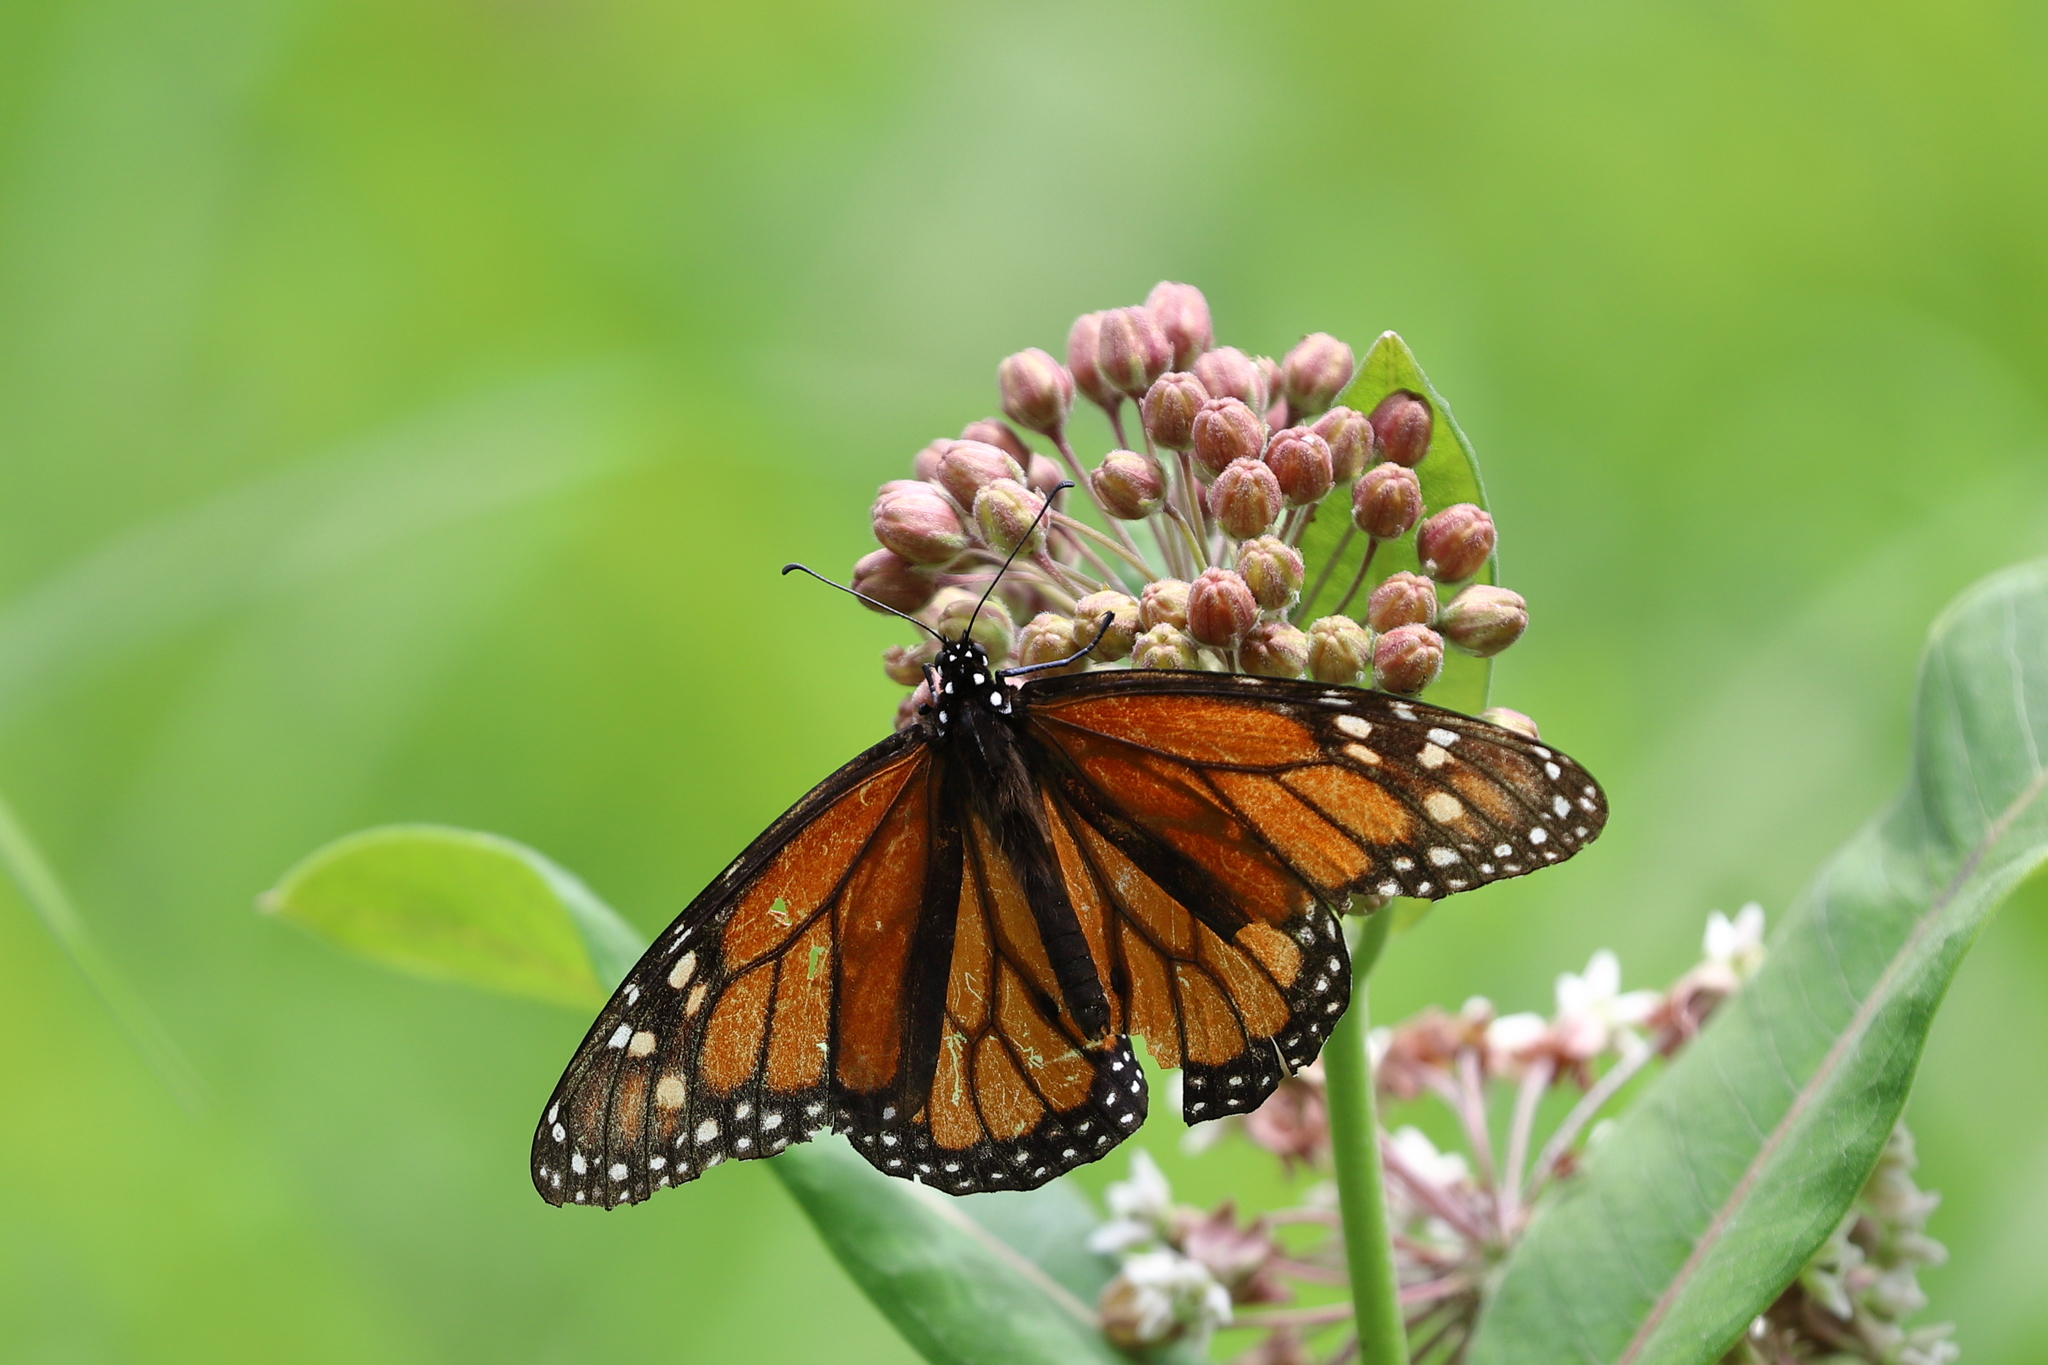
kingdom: Animalia
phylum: Arthropoda
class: Insecta
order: Lepidoptera
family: Nymphalidae
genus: Danaus
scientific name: Danaus plexippus
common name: Monarch
